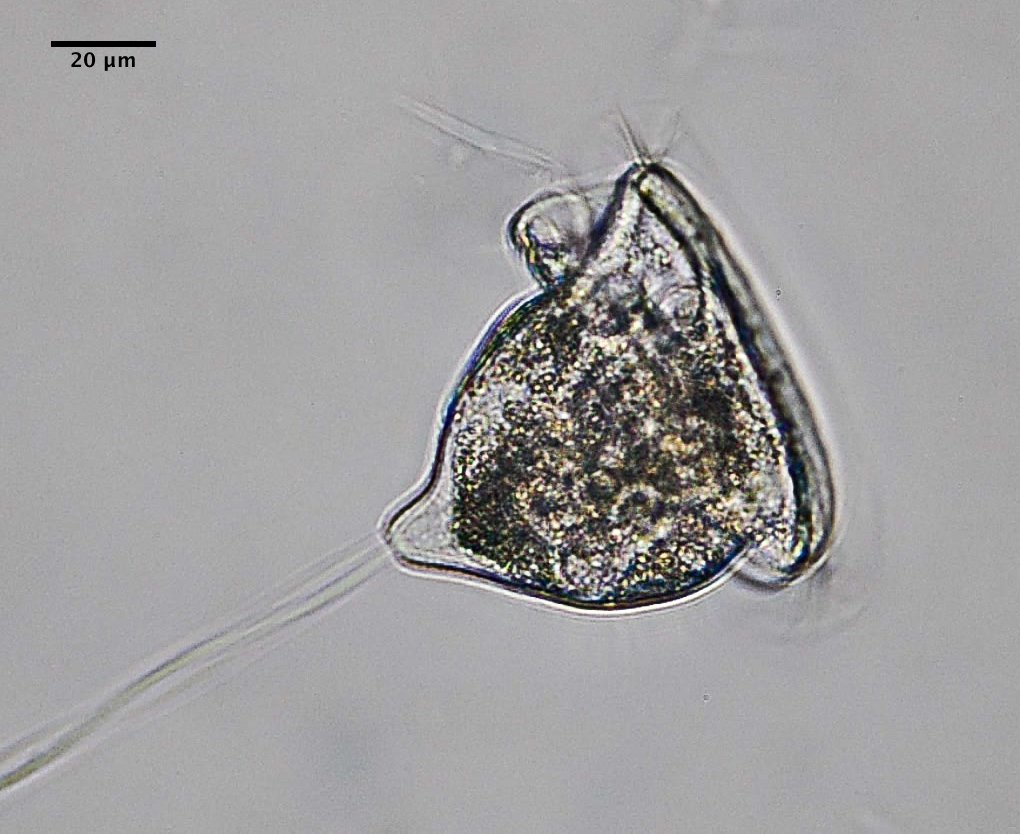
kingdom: Chromista
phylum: Ciliophora
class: Oligohymenophorea
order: Peritrichida
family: Vorticellidae
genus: Vorticella
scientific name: Vorticella campanulla
